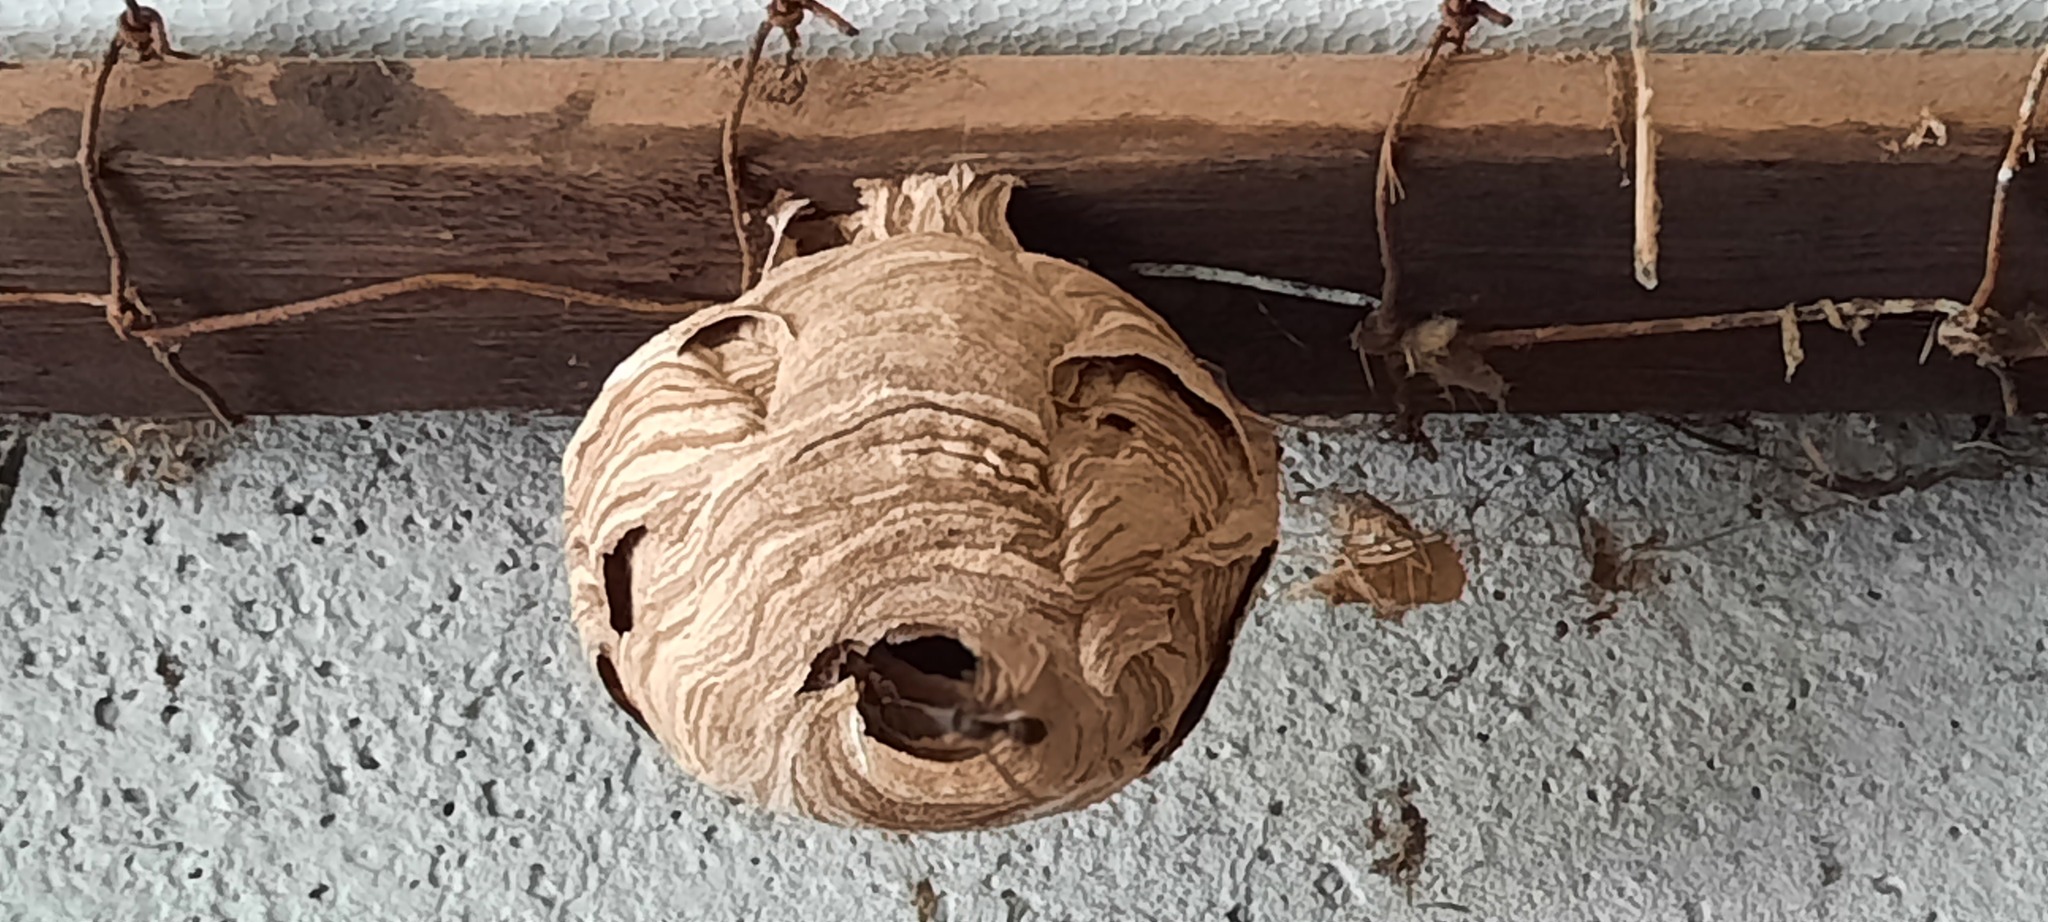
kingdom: Animalia
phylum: Arthropoda
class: Insecta
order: Hymenoptera
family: Vespidae
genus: Vespa
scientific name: Vespa velutina
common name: Asian hornet
